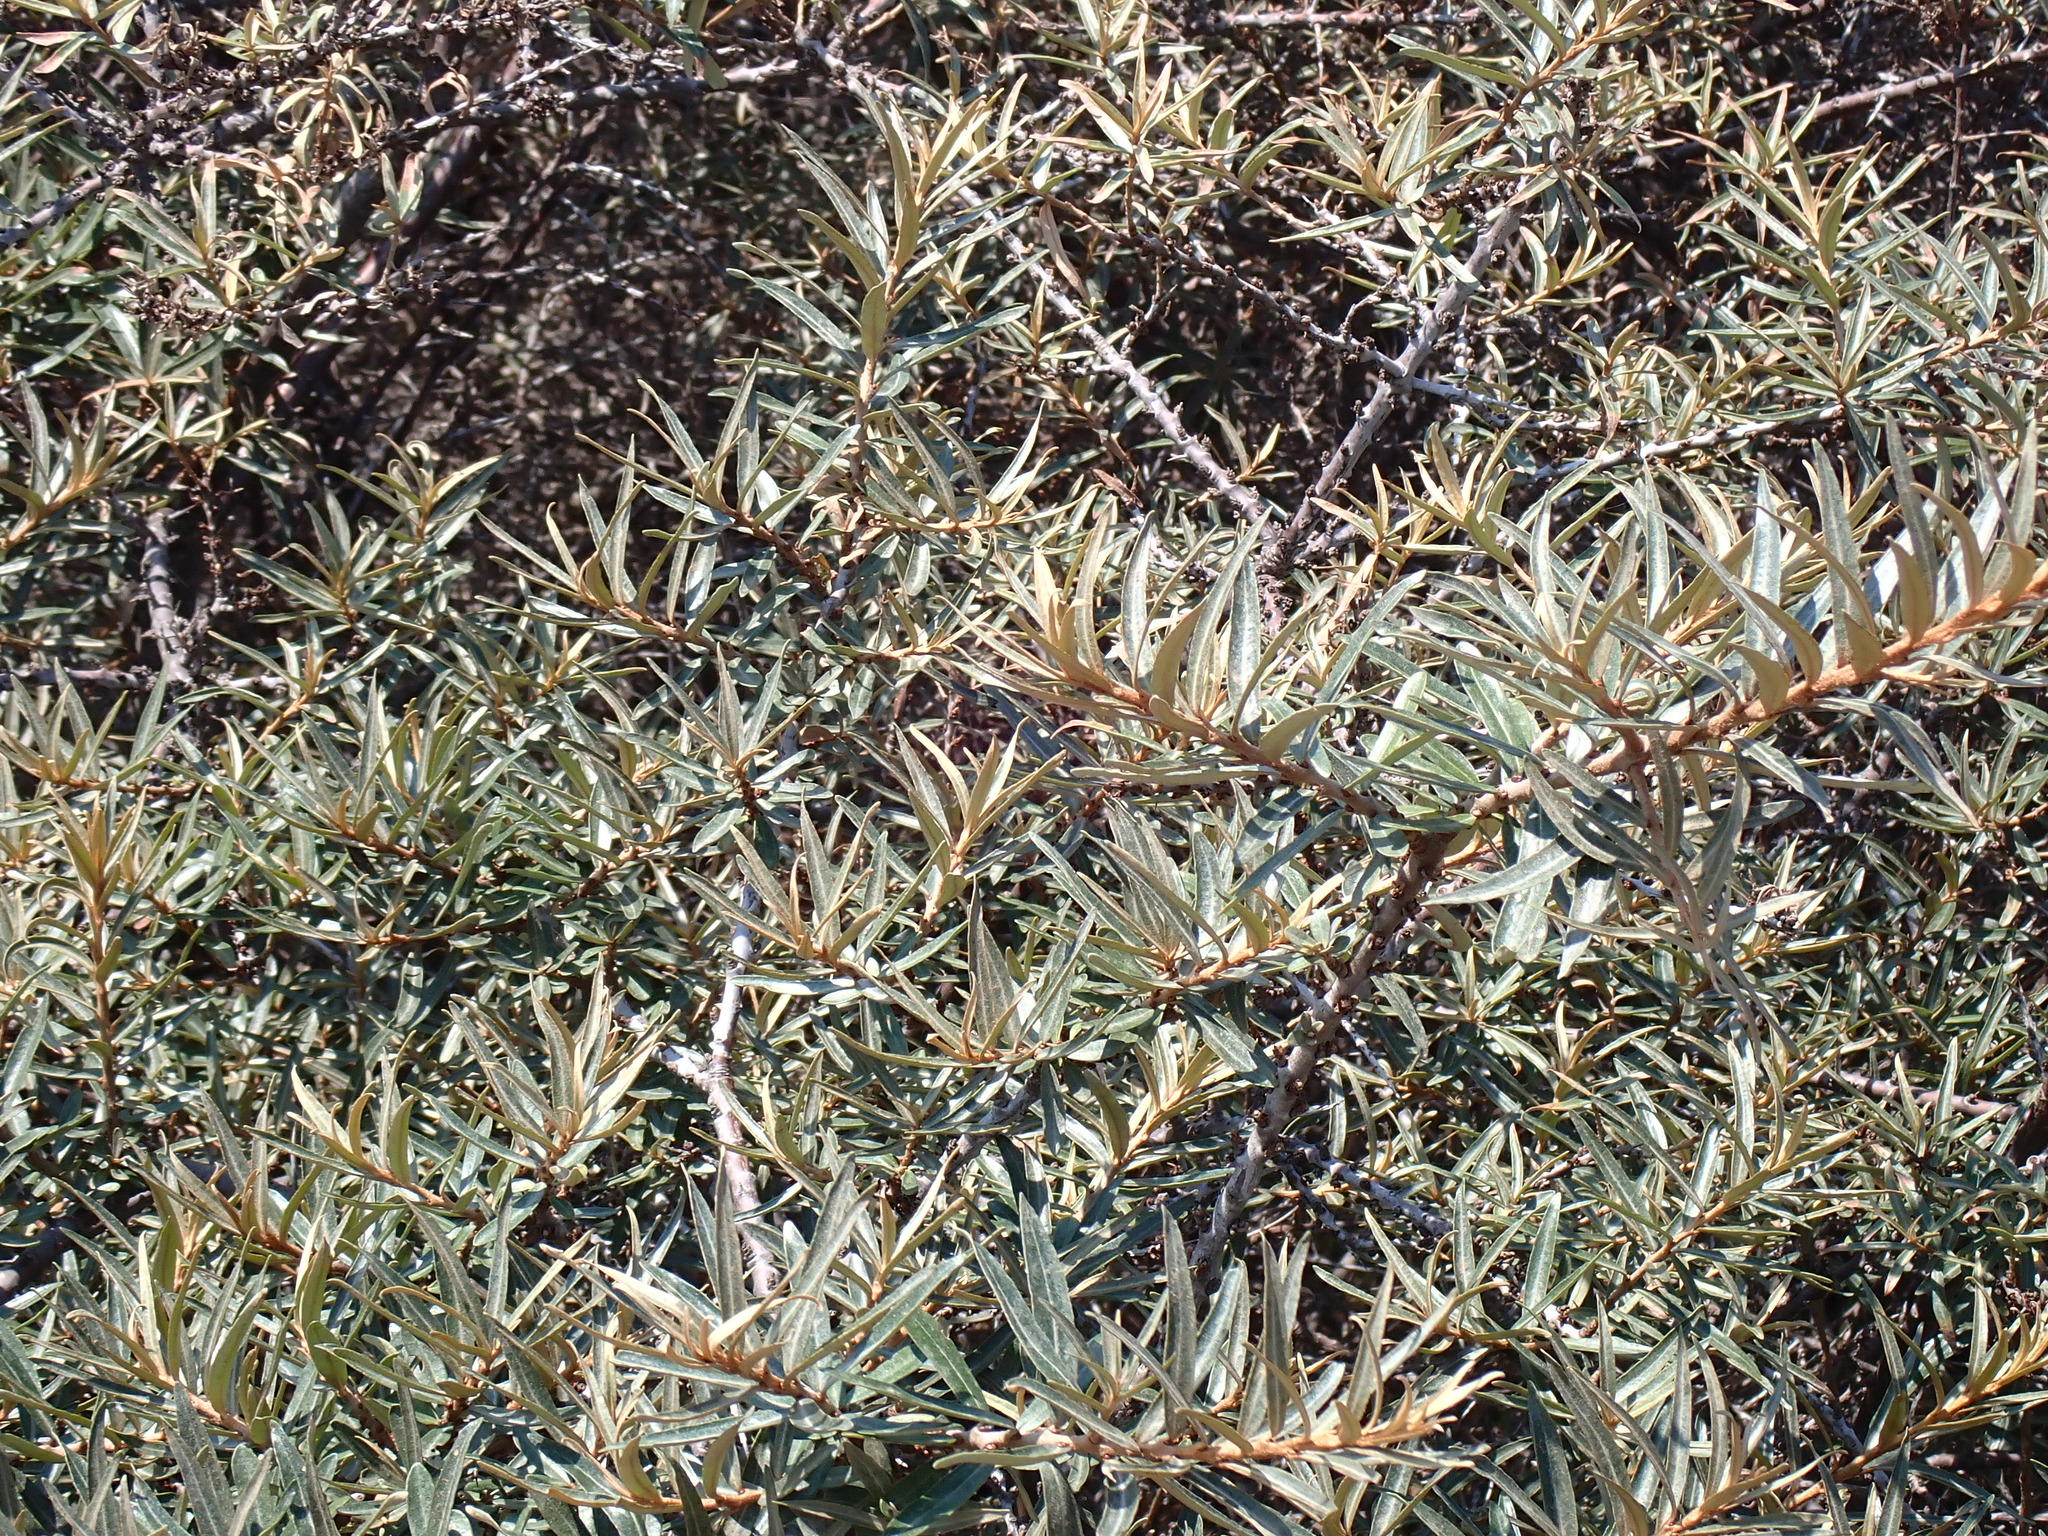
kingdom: Plantae
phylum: Tracheophyta
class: Magnoliopsida
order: Rosales
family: Elaeagnaceae
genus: Hippophae
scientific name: Hippophae rhamnoides
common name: Sea-buckthorn
